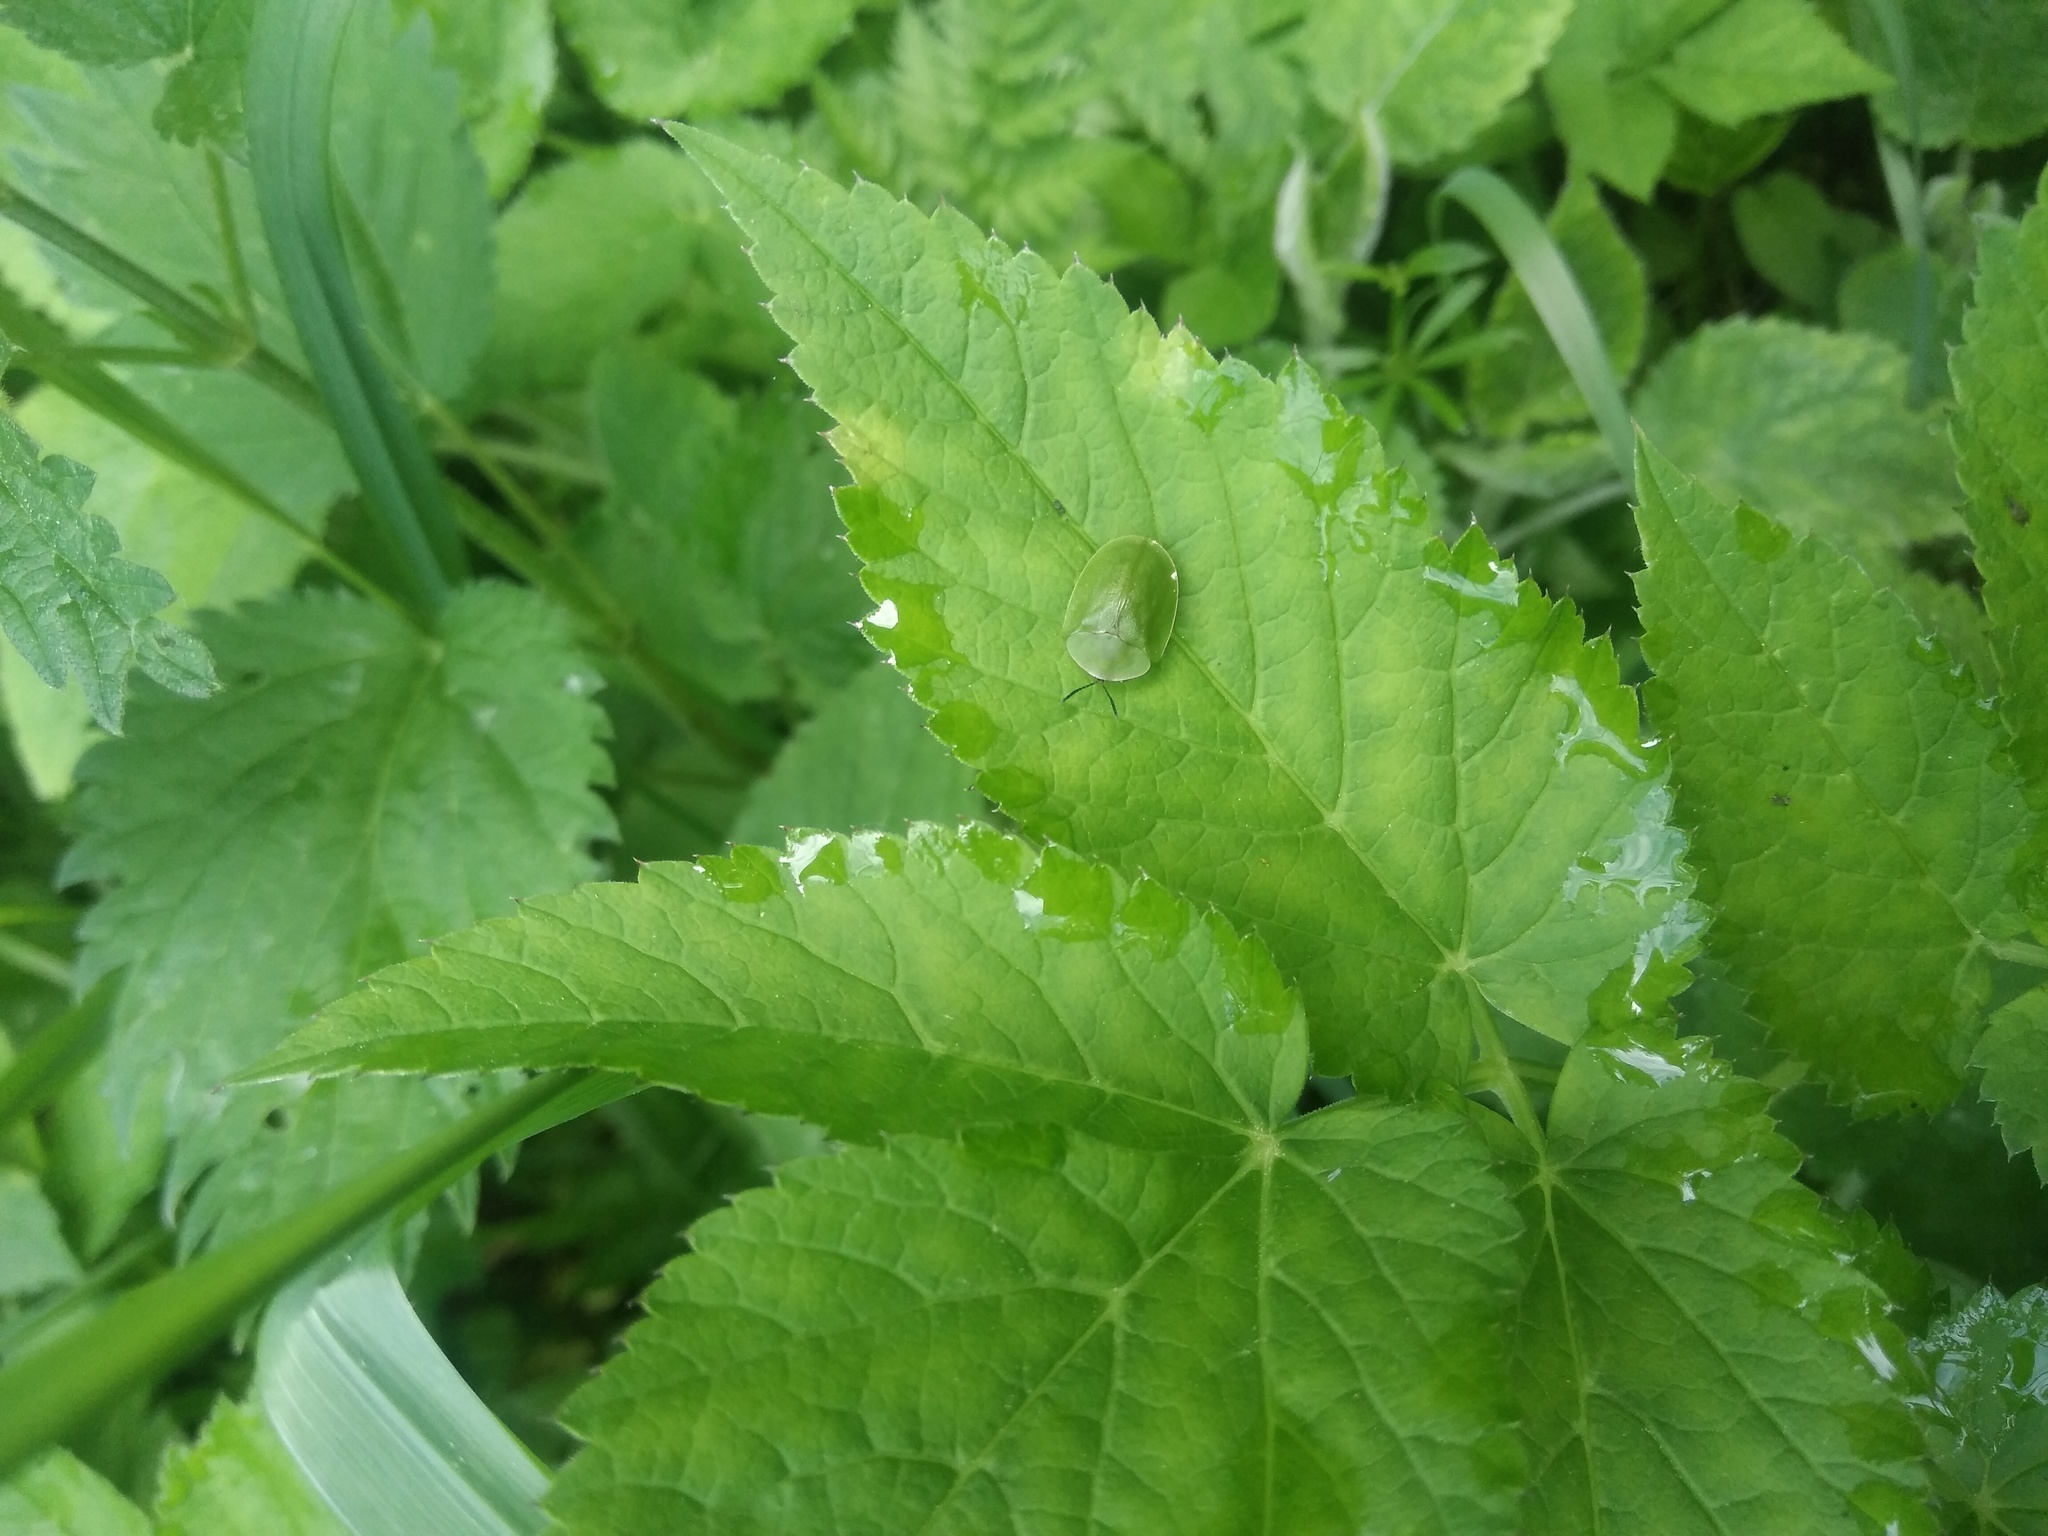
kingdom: Animalia
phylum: Arthropoda
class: Insecta
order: Coleoptera
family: Chrysomelidae
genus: Cassida
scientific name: Cassida viridis
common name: Green tortoise beetle
